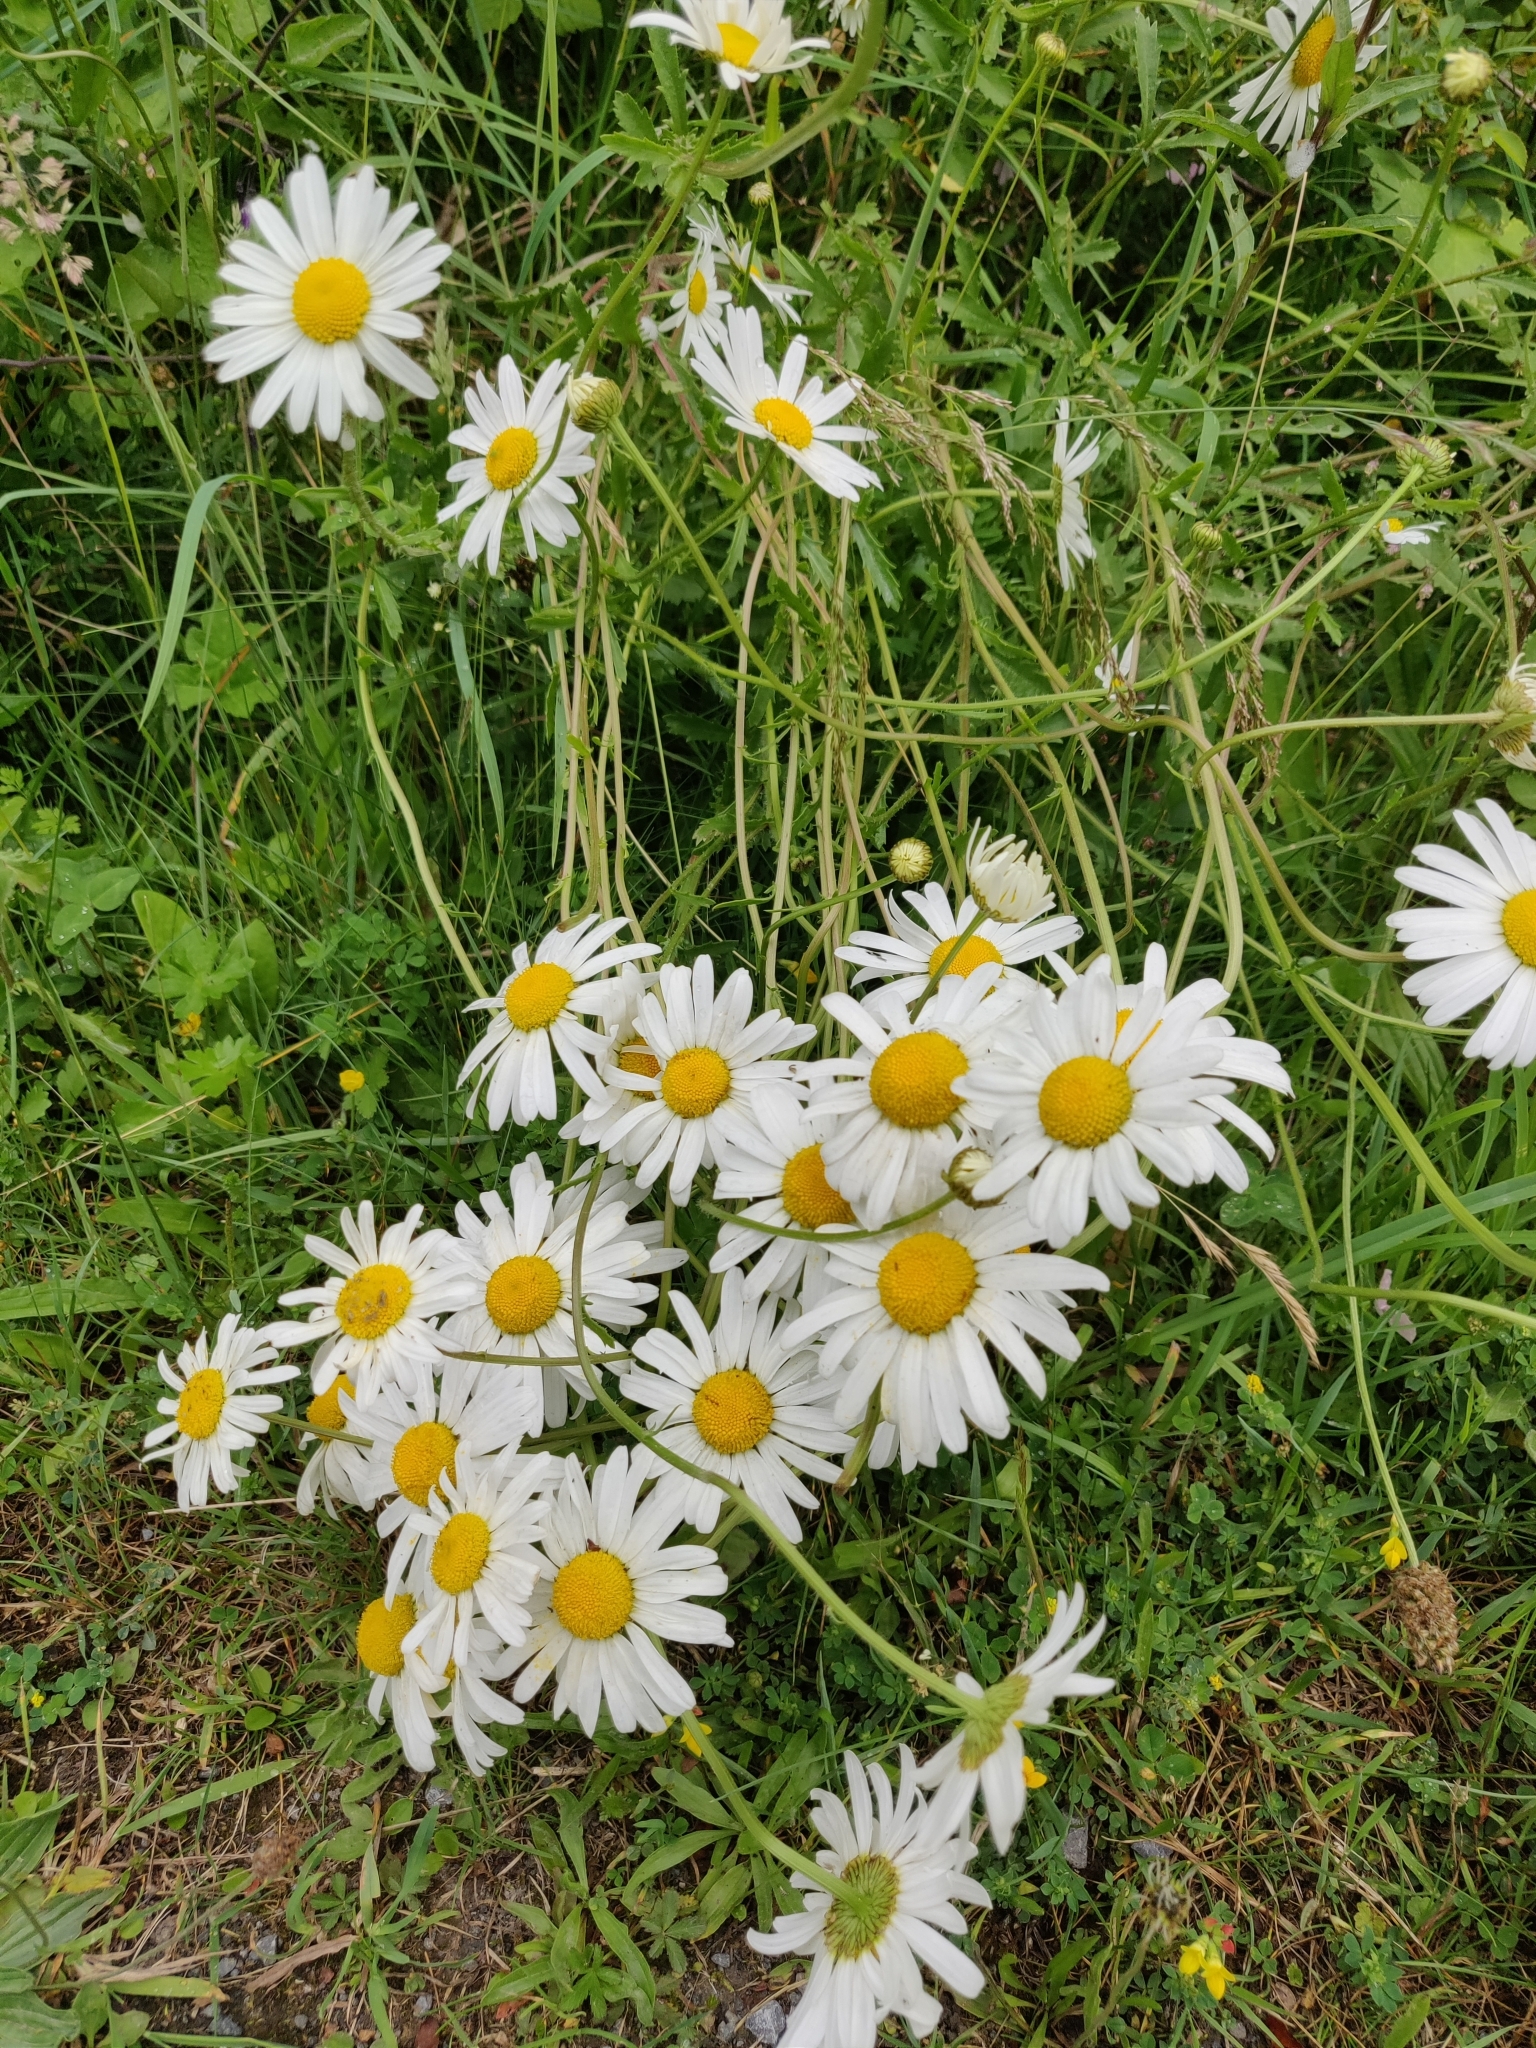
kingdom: Plantae
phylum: Tracheophyta
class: Magnoliopsida
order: Asterales
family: Asteraceae
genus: Leucanthemum
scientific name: Leucanthemum vulgare
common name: Oxeye daisy
